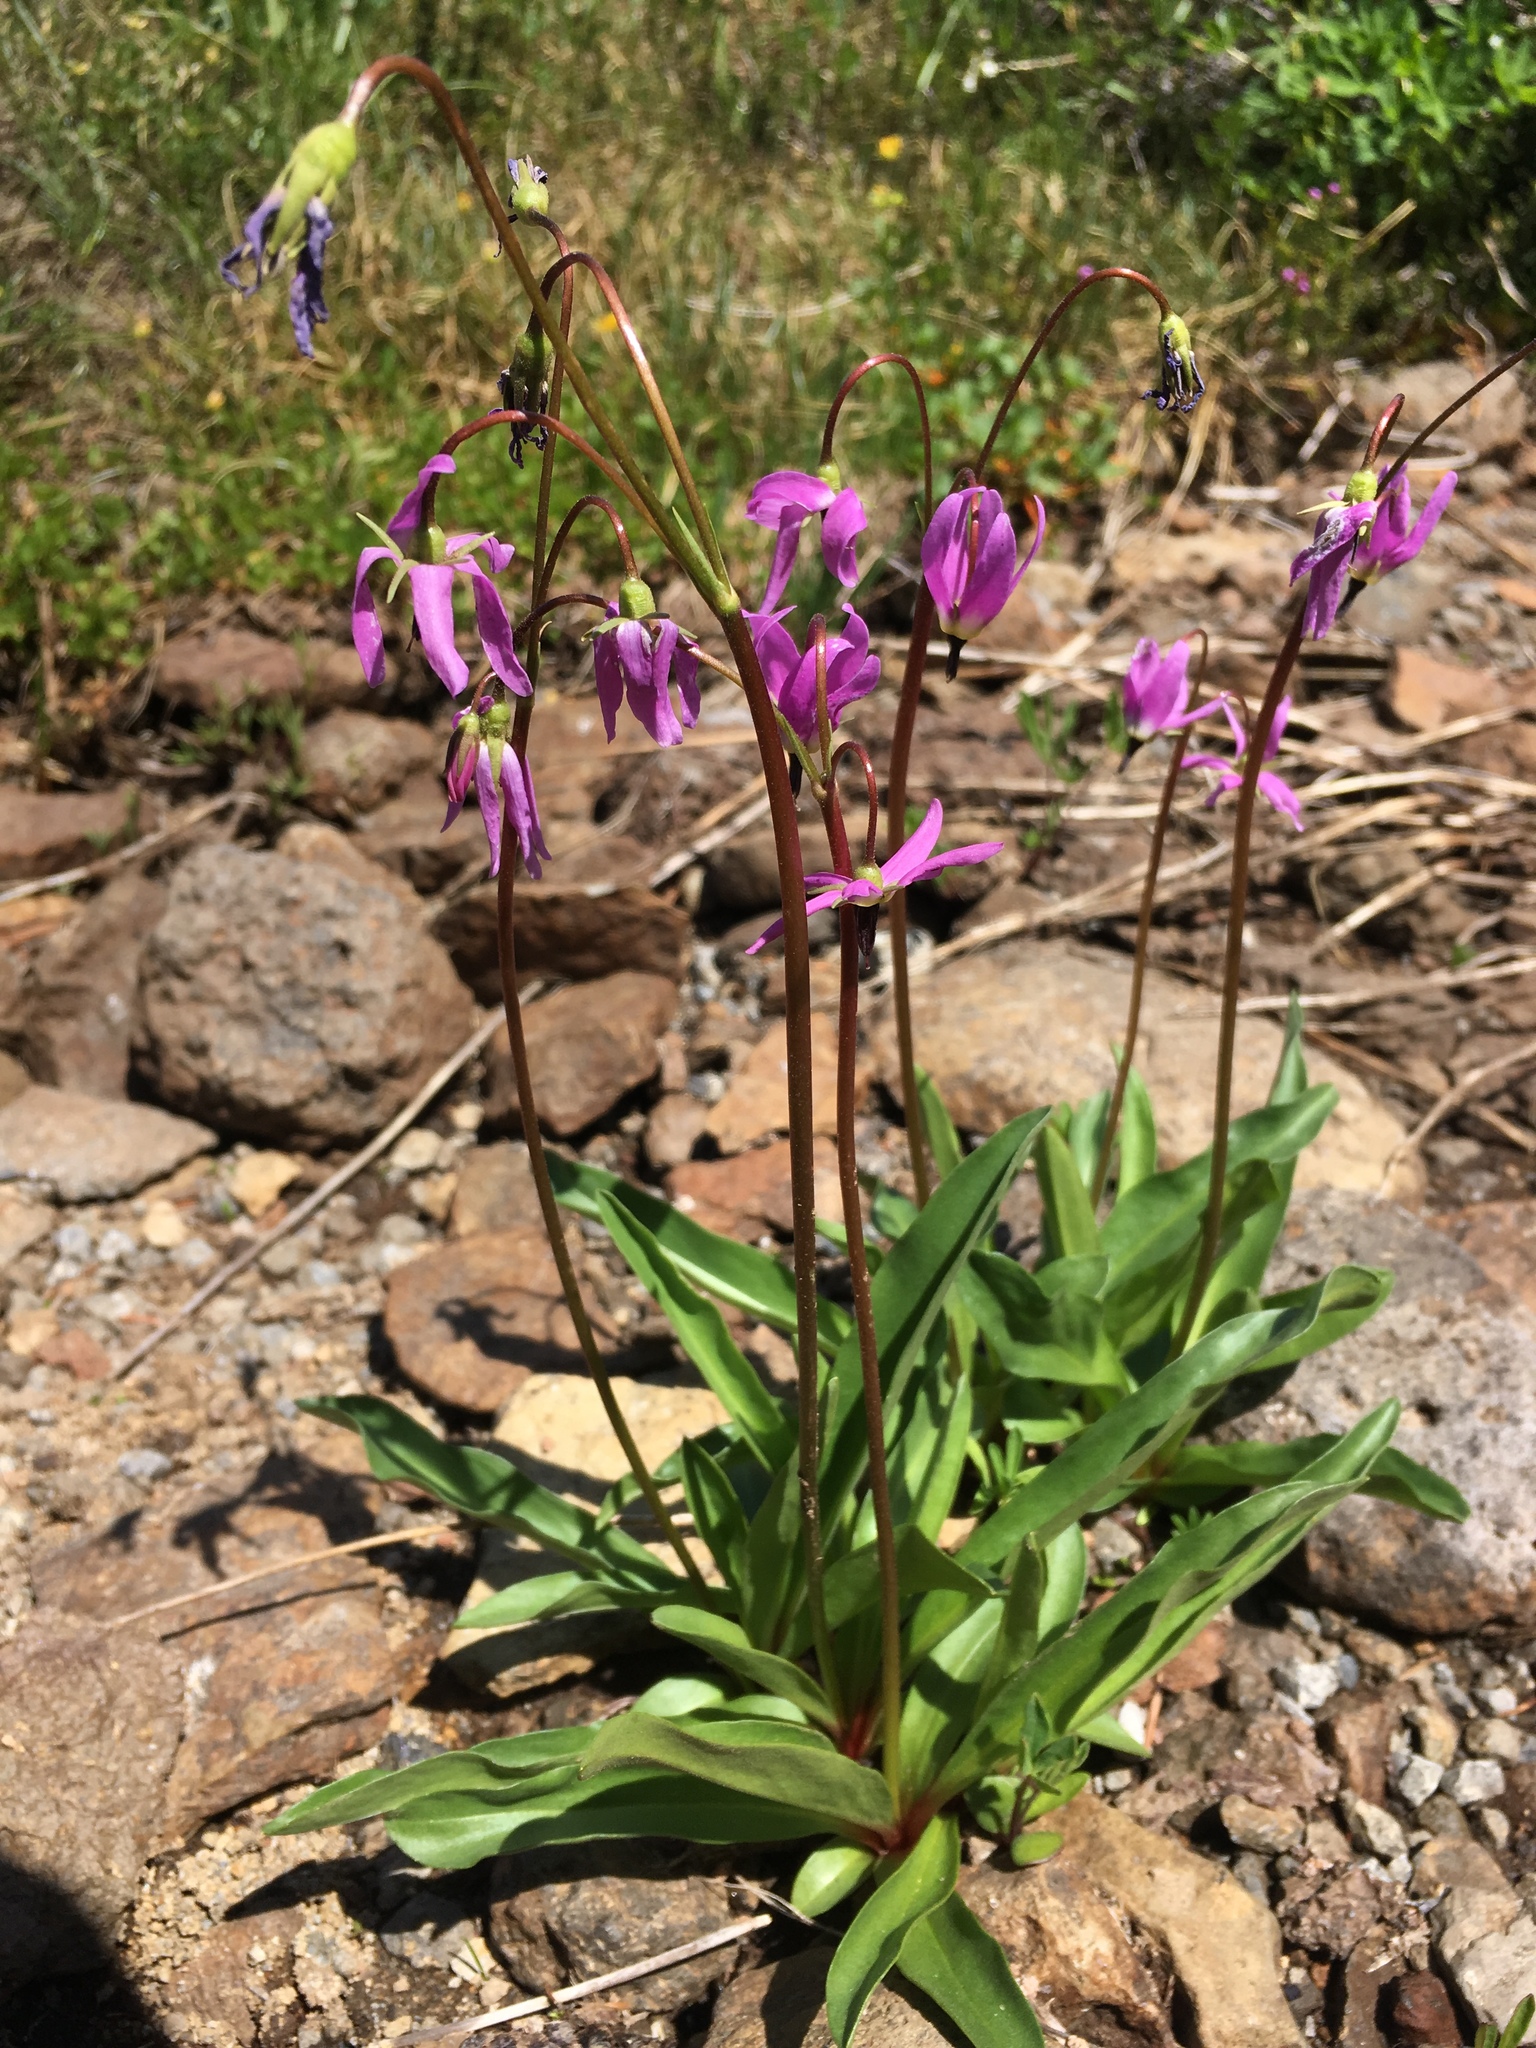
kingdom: Plantae
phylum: Tracheophyta
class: Magnoliopsida
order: Ericales
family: Primulaceae
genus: Dodecatheon
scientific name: Dodecatheon jeffreyanum
